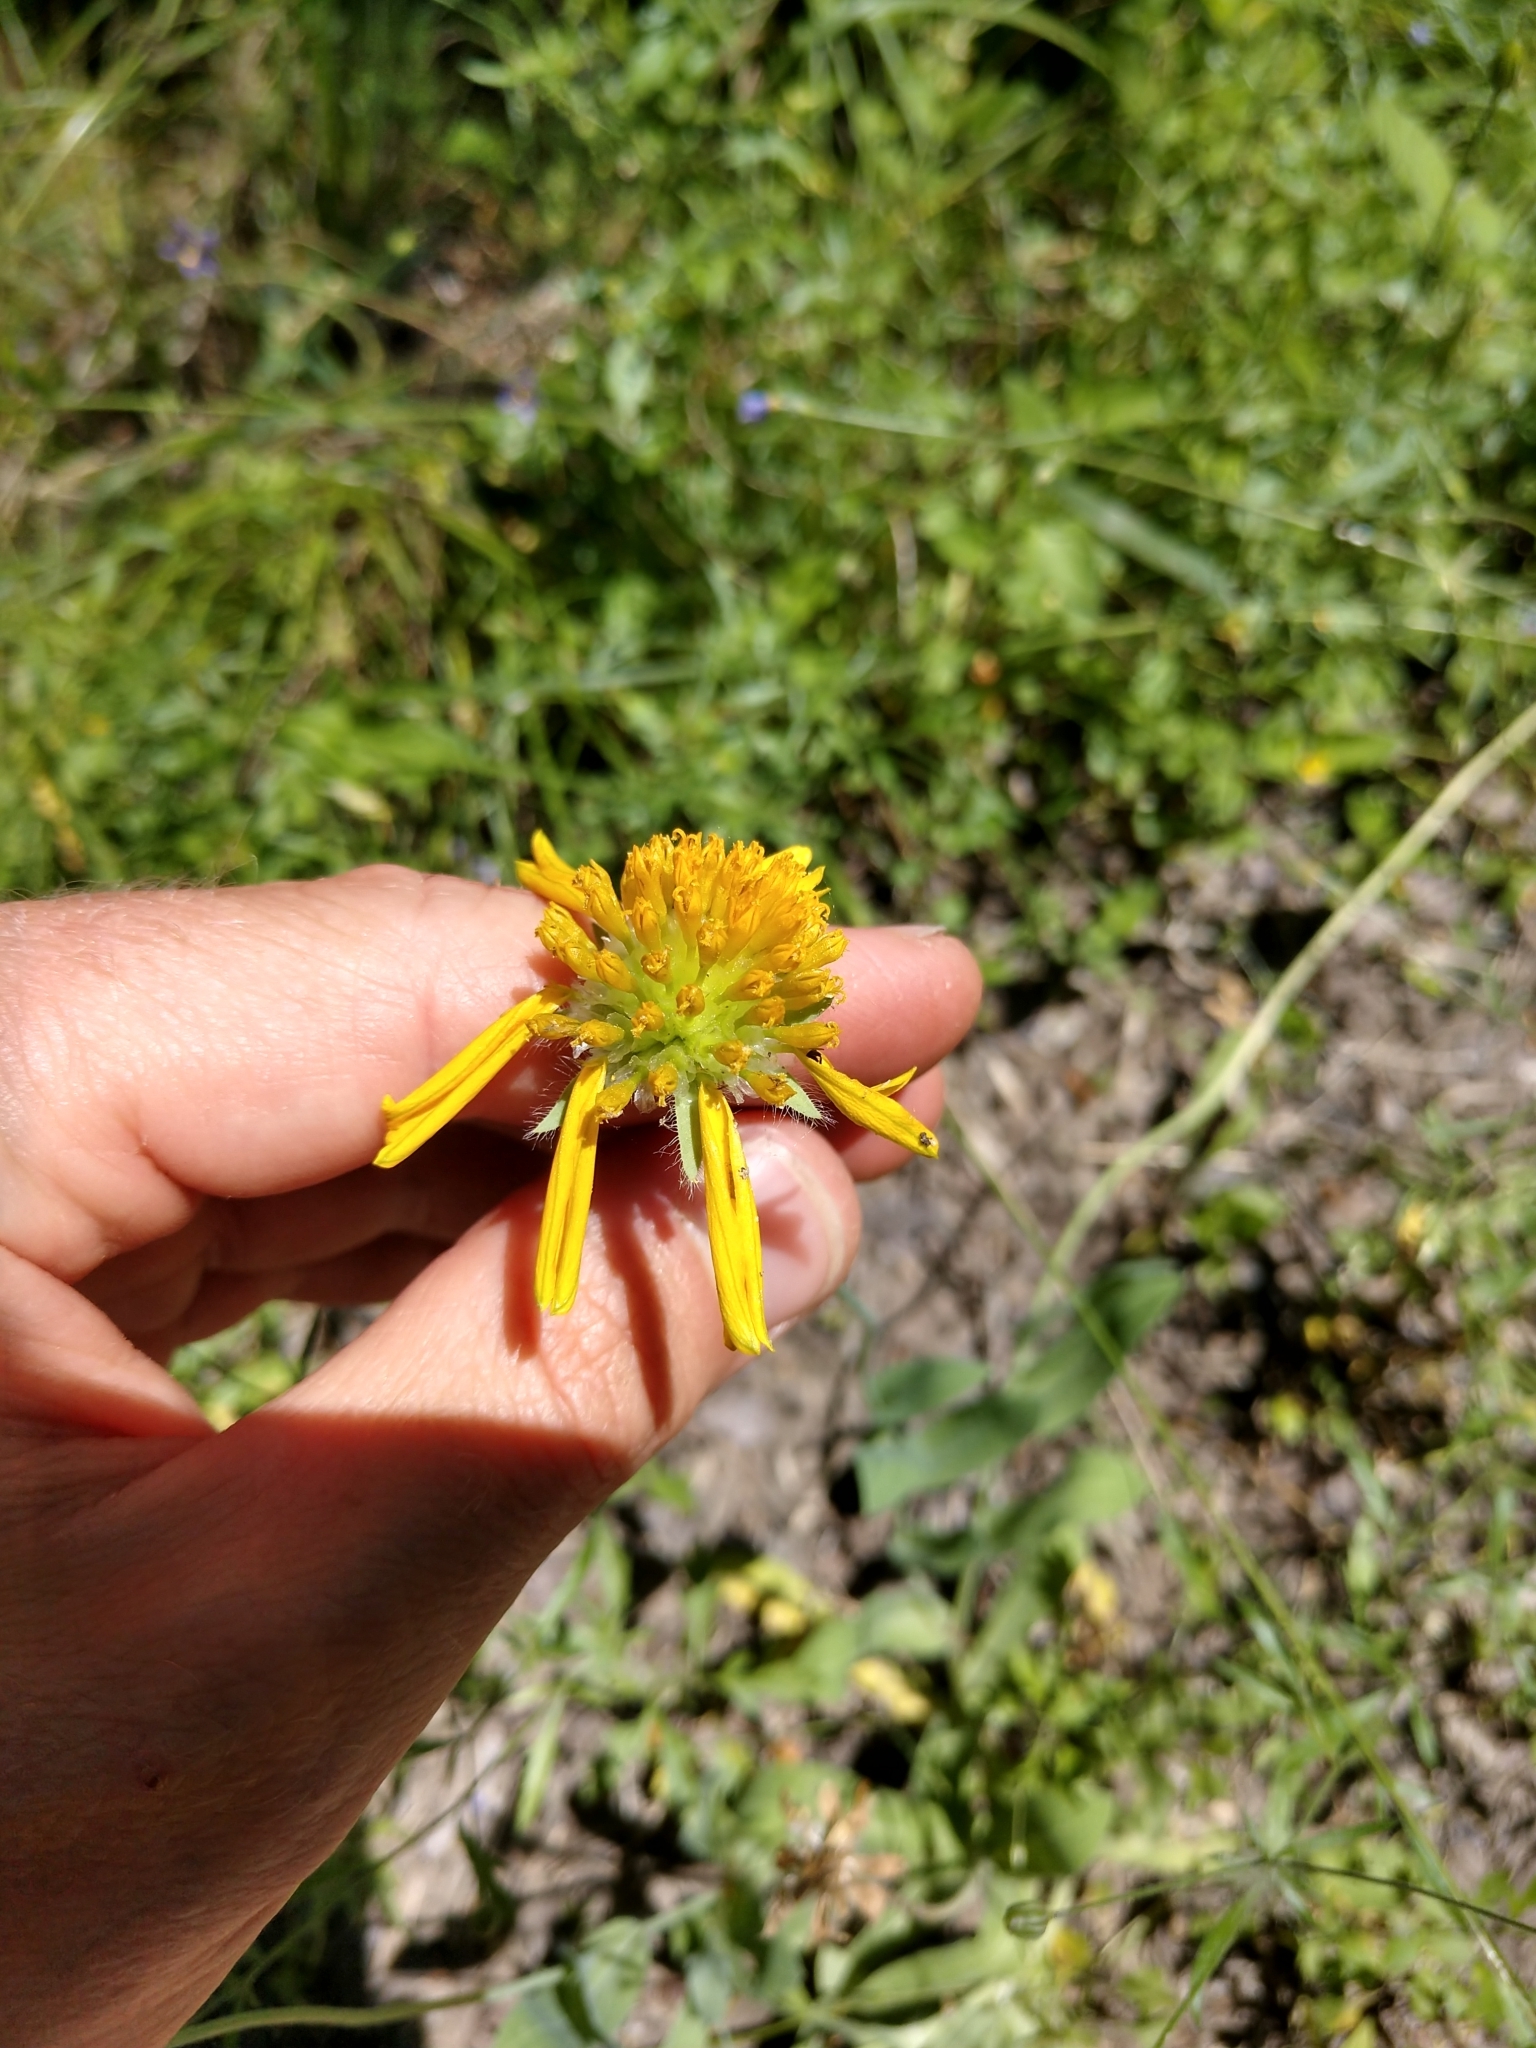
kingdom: Plantae
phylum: Tracheophyta
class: Magnoliopsida
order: Asterales
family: Asteraceae
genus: Amblyolepis
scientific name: Amblyolepis setigera
